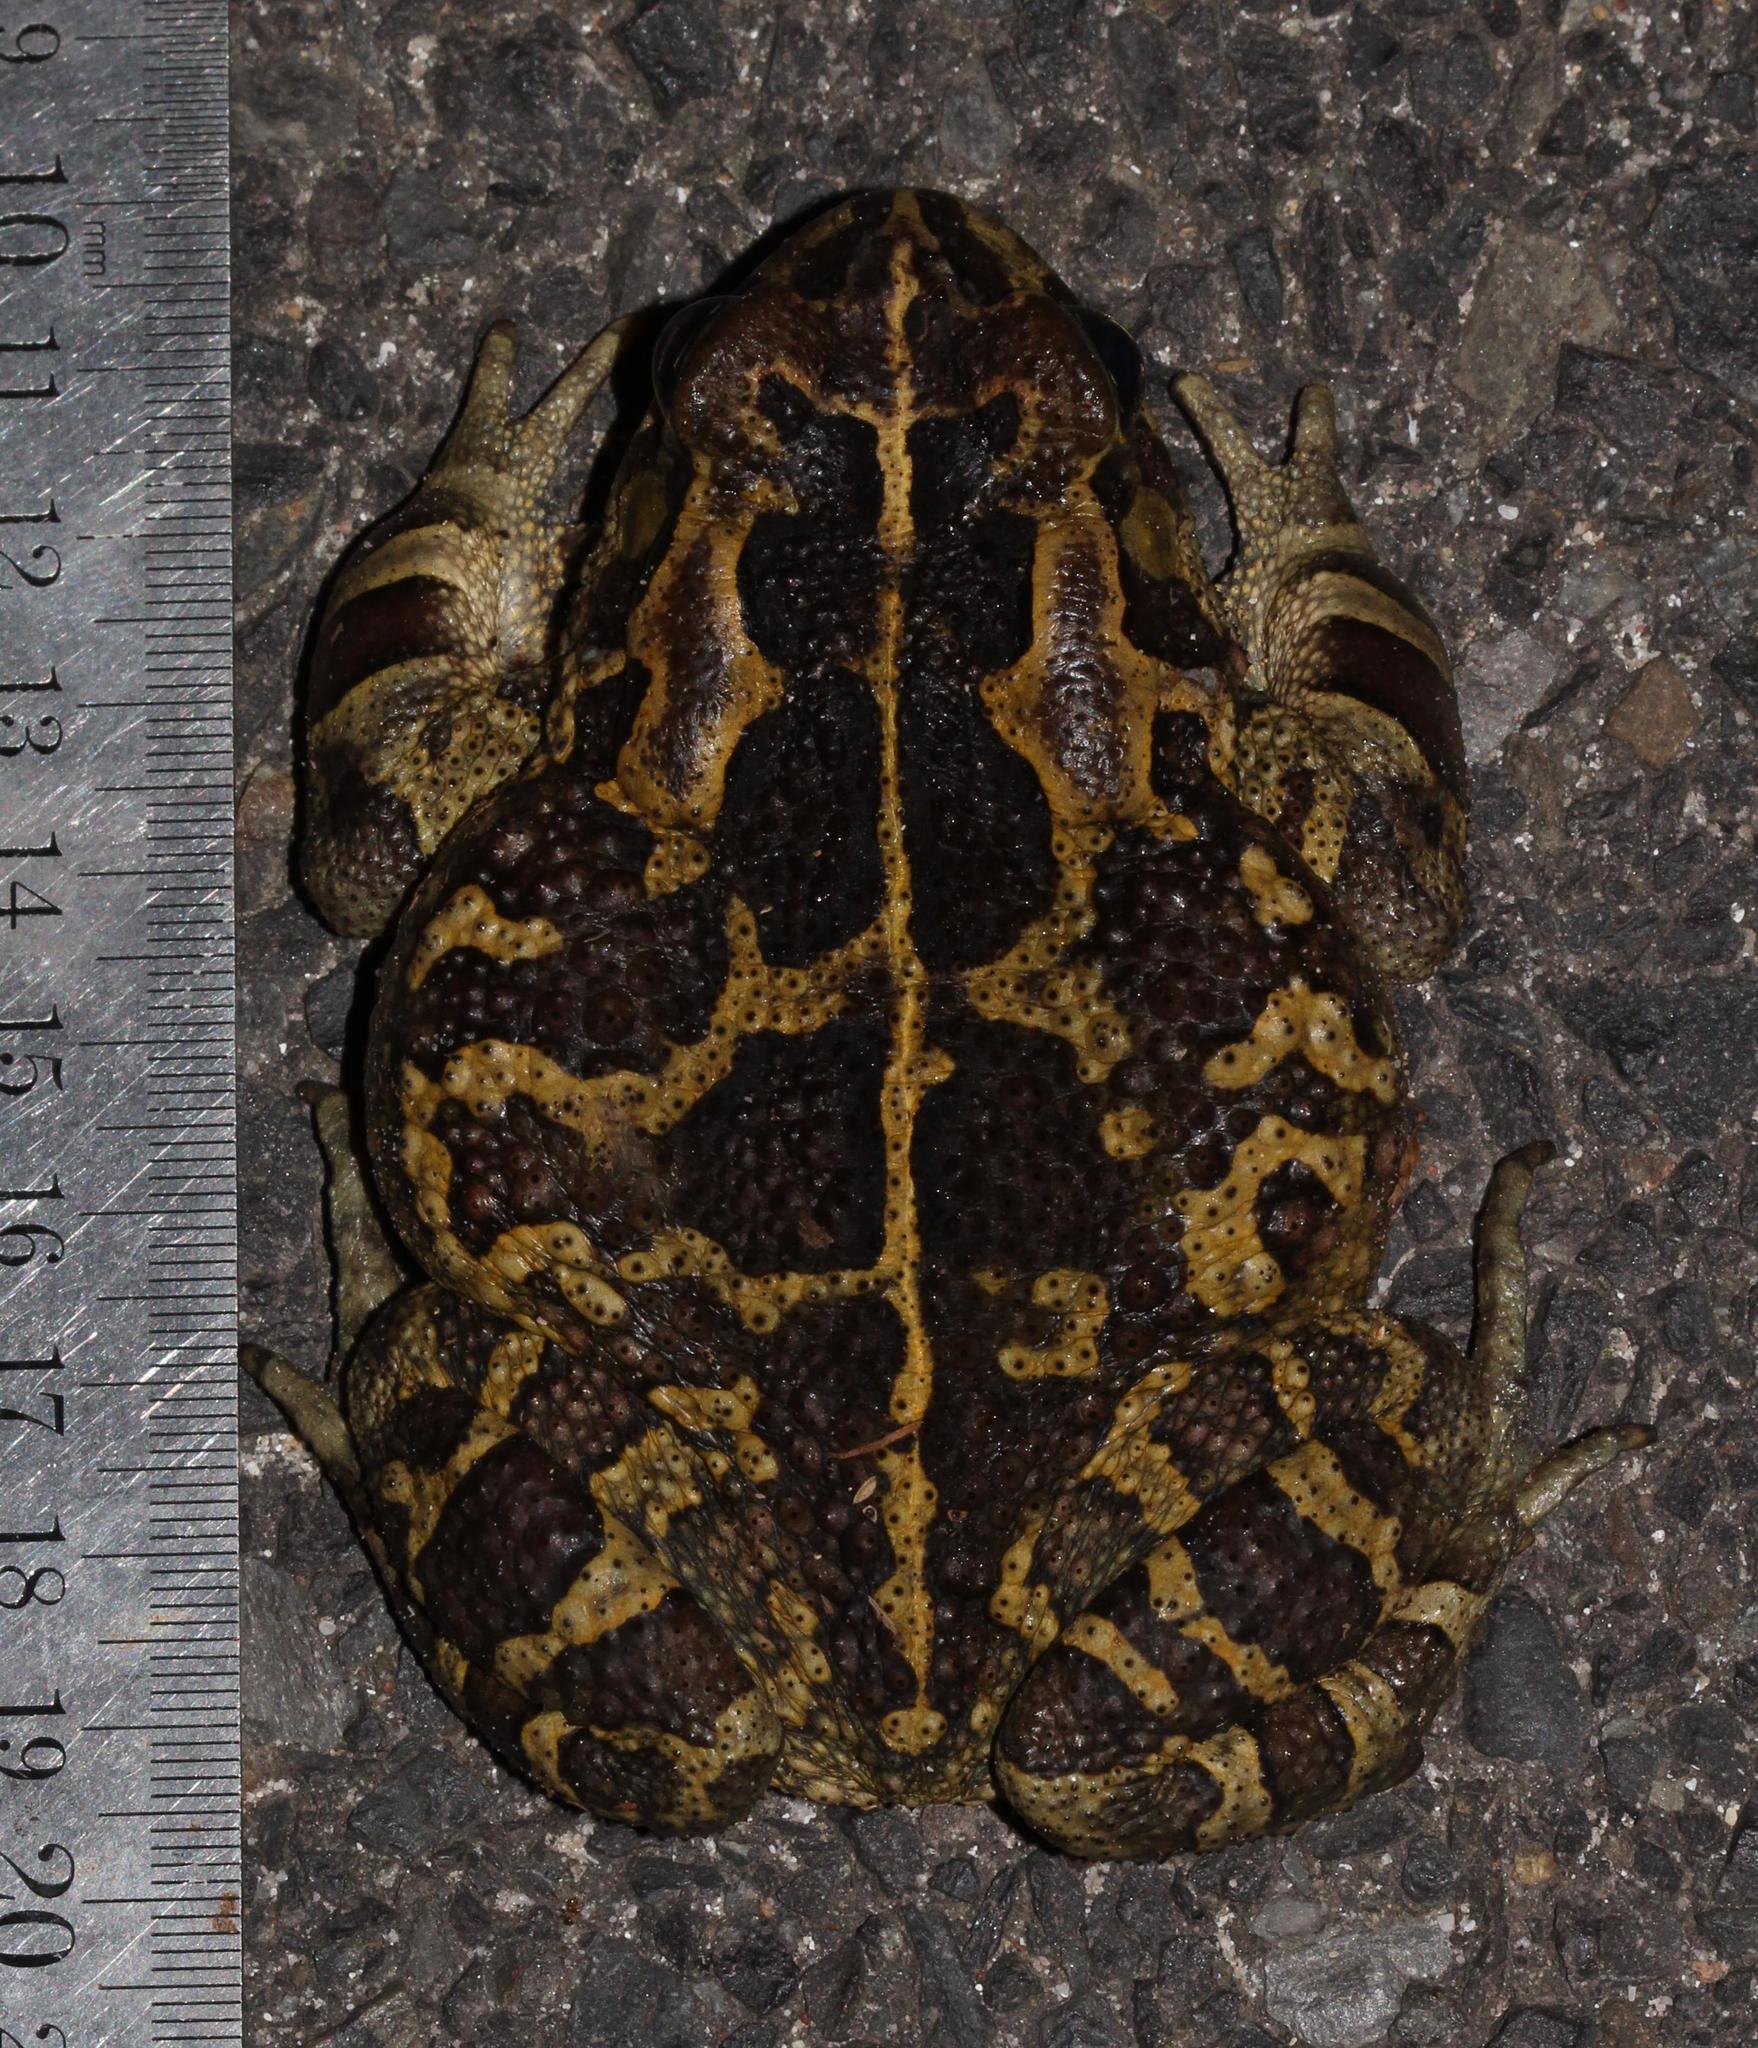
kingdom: Animalia
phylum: Chordata
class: Amphibia
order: Anura
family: Bufonidae
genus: Sclerophrys
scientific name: Sclerophrys pantherina
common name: Panther toad
